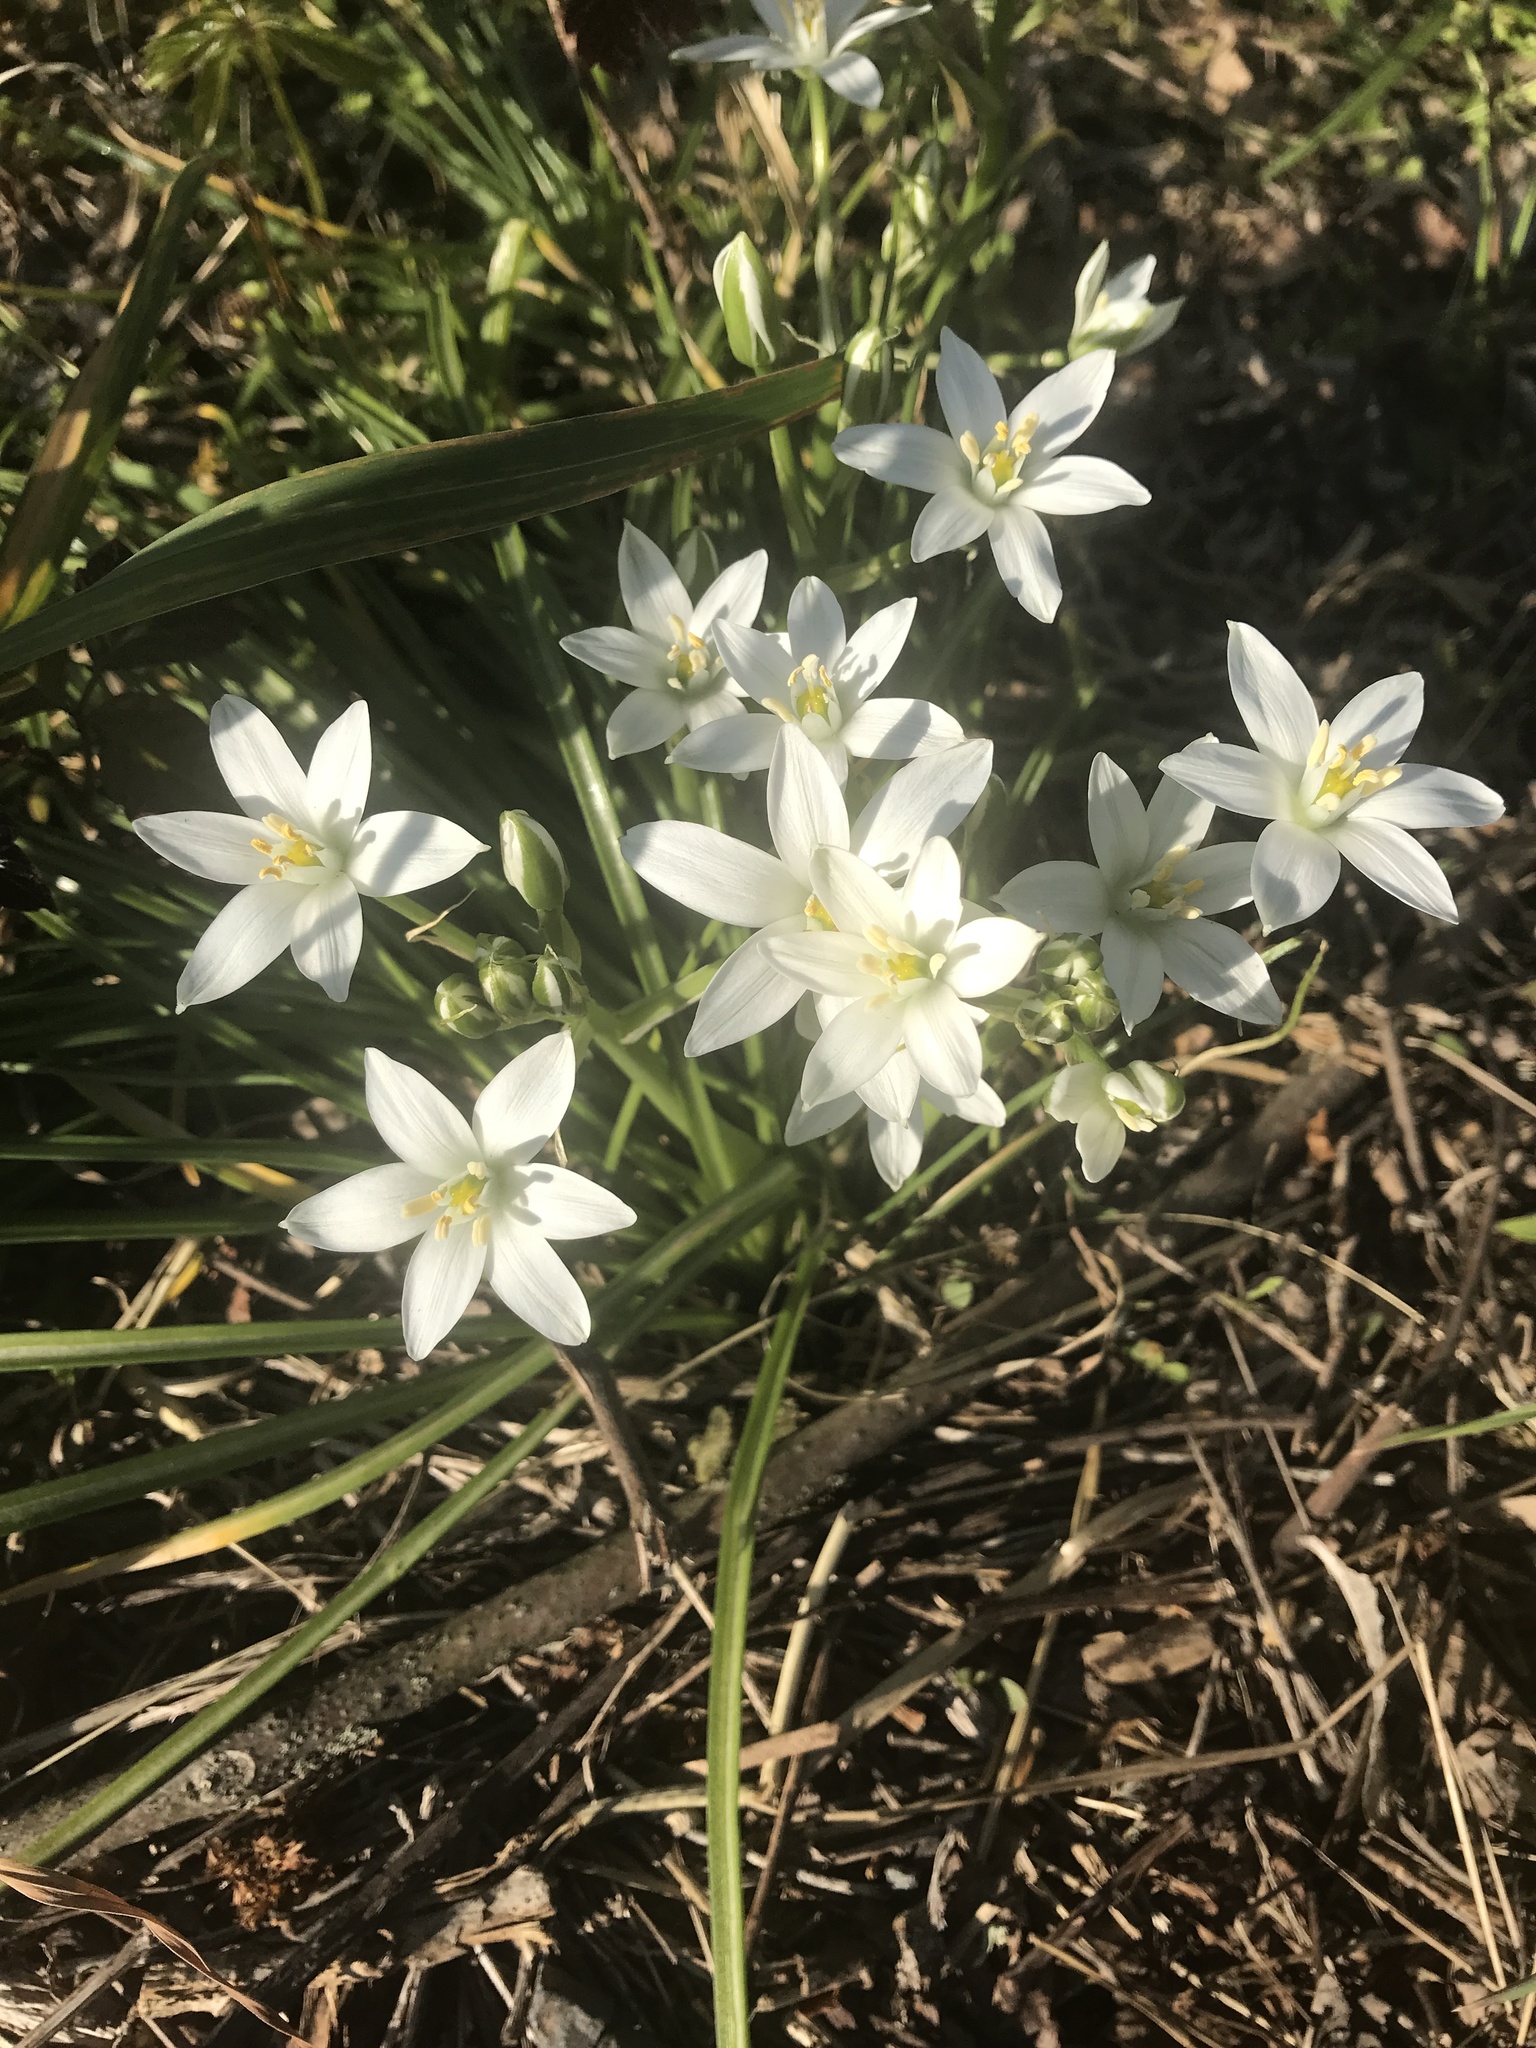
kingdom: Plantae
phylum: Tracheophyta
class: Liliopsida
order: Asparagales
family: Asparagaceae
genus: Ornithogalum
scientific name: Ornithogalum umbellatum
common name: Garden star-of-bethlehem
